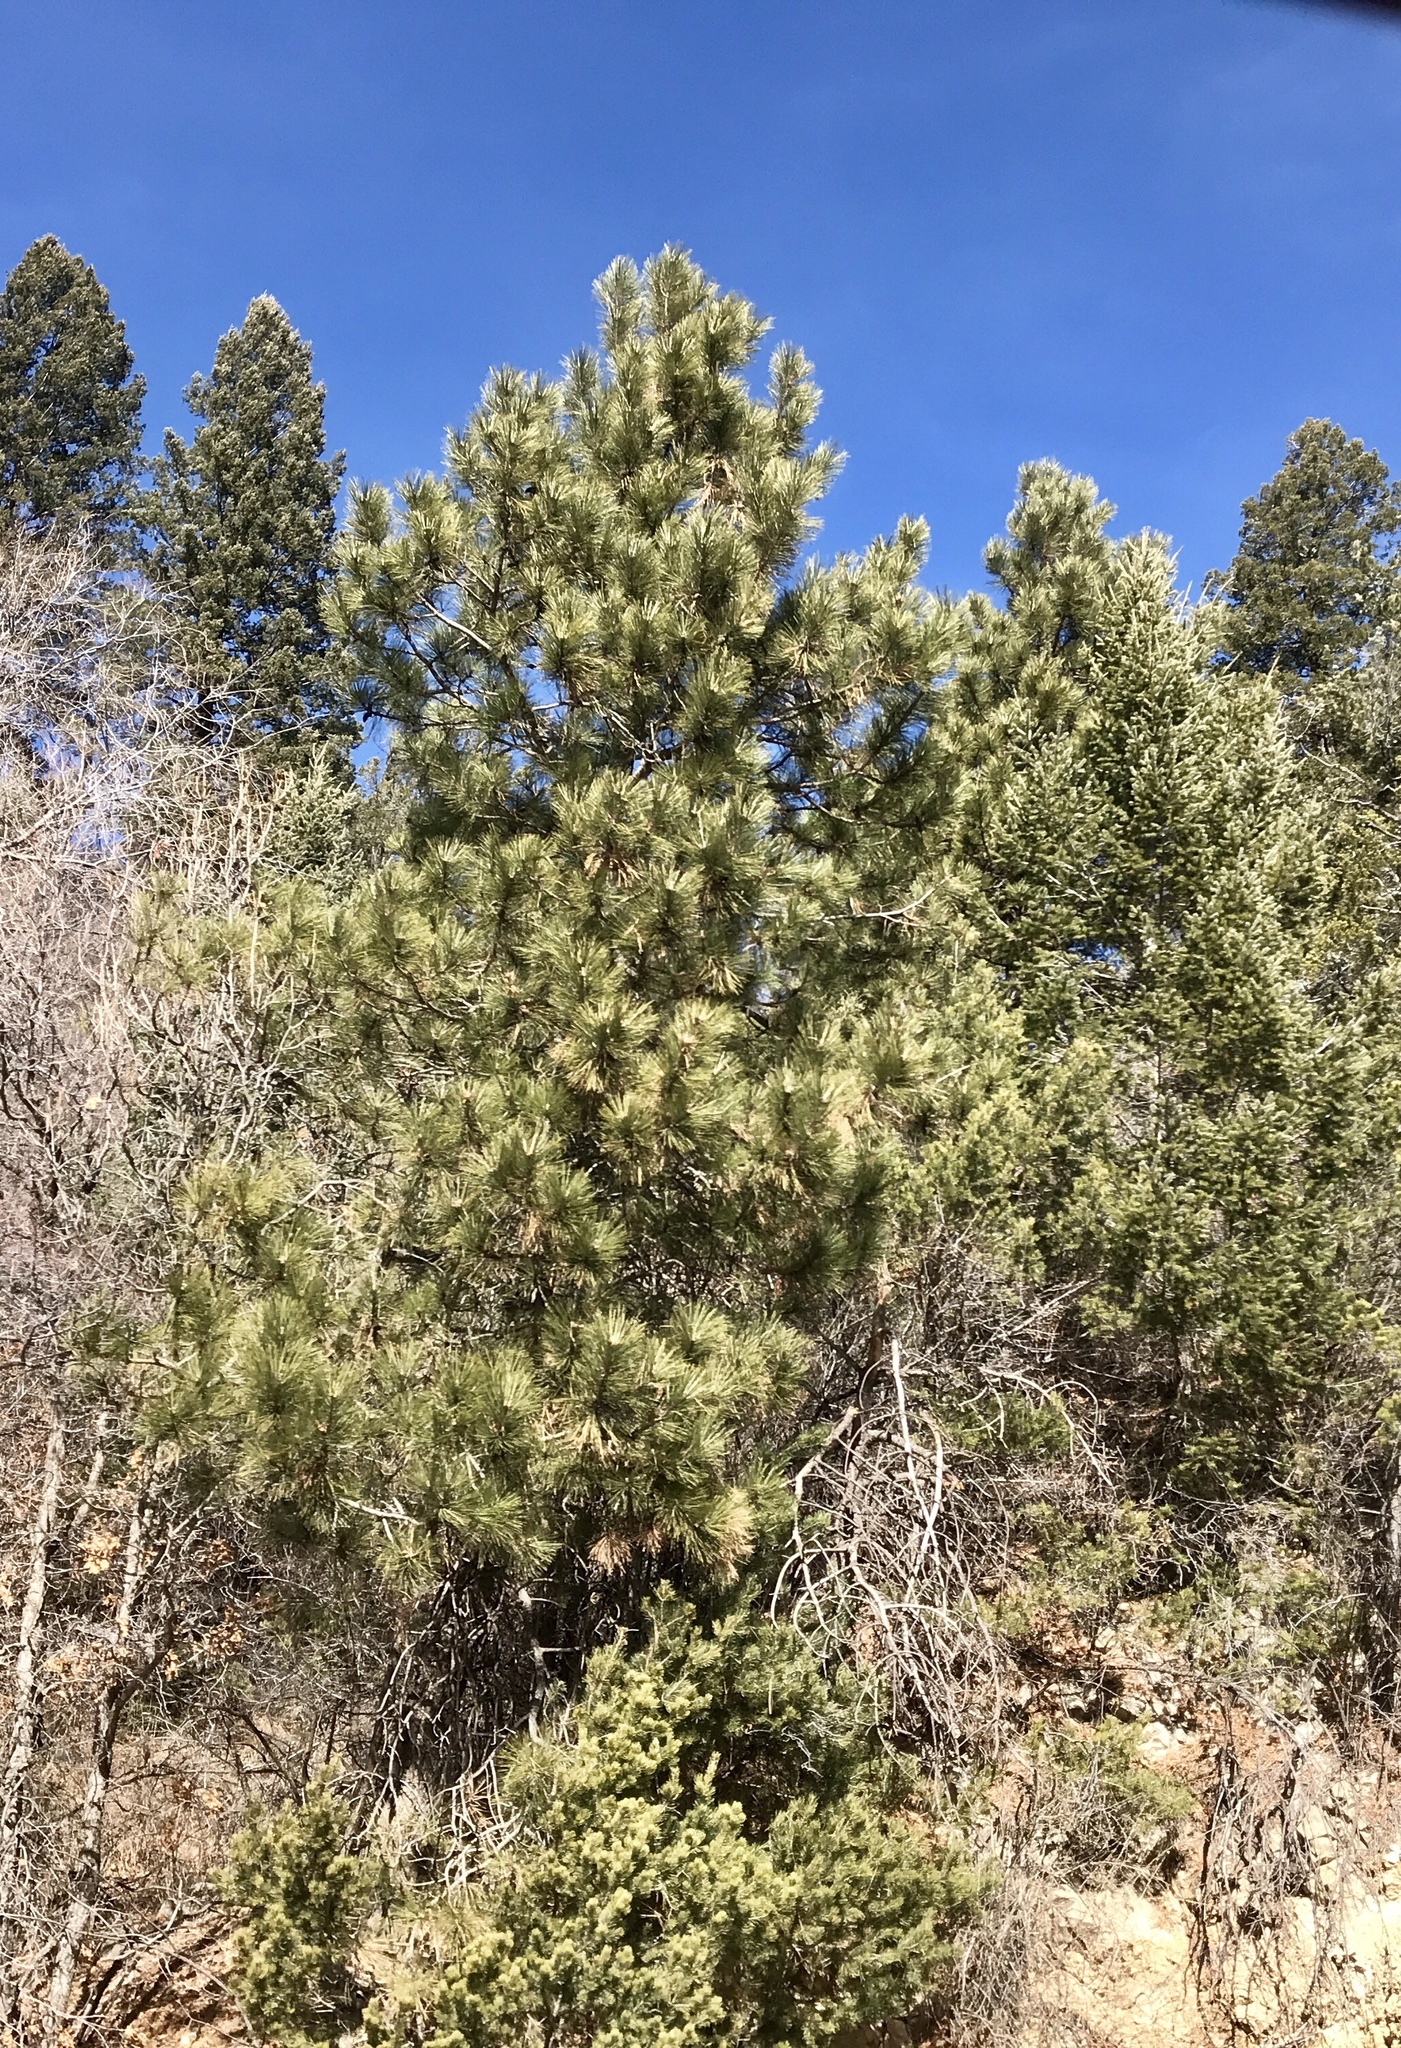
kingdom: Plantae
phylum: Tracheophyta
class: Pinopsida
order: Pinales
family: Pinaceae
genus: Pinus
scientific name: Pinus ponderosa
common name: Western yellow-pine
